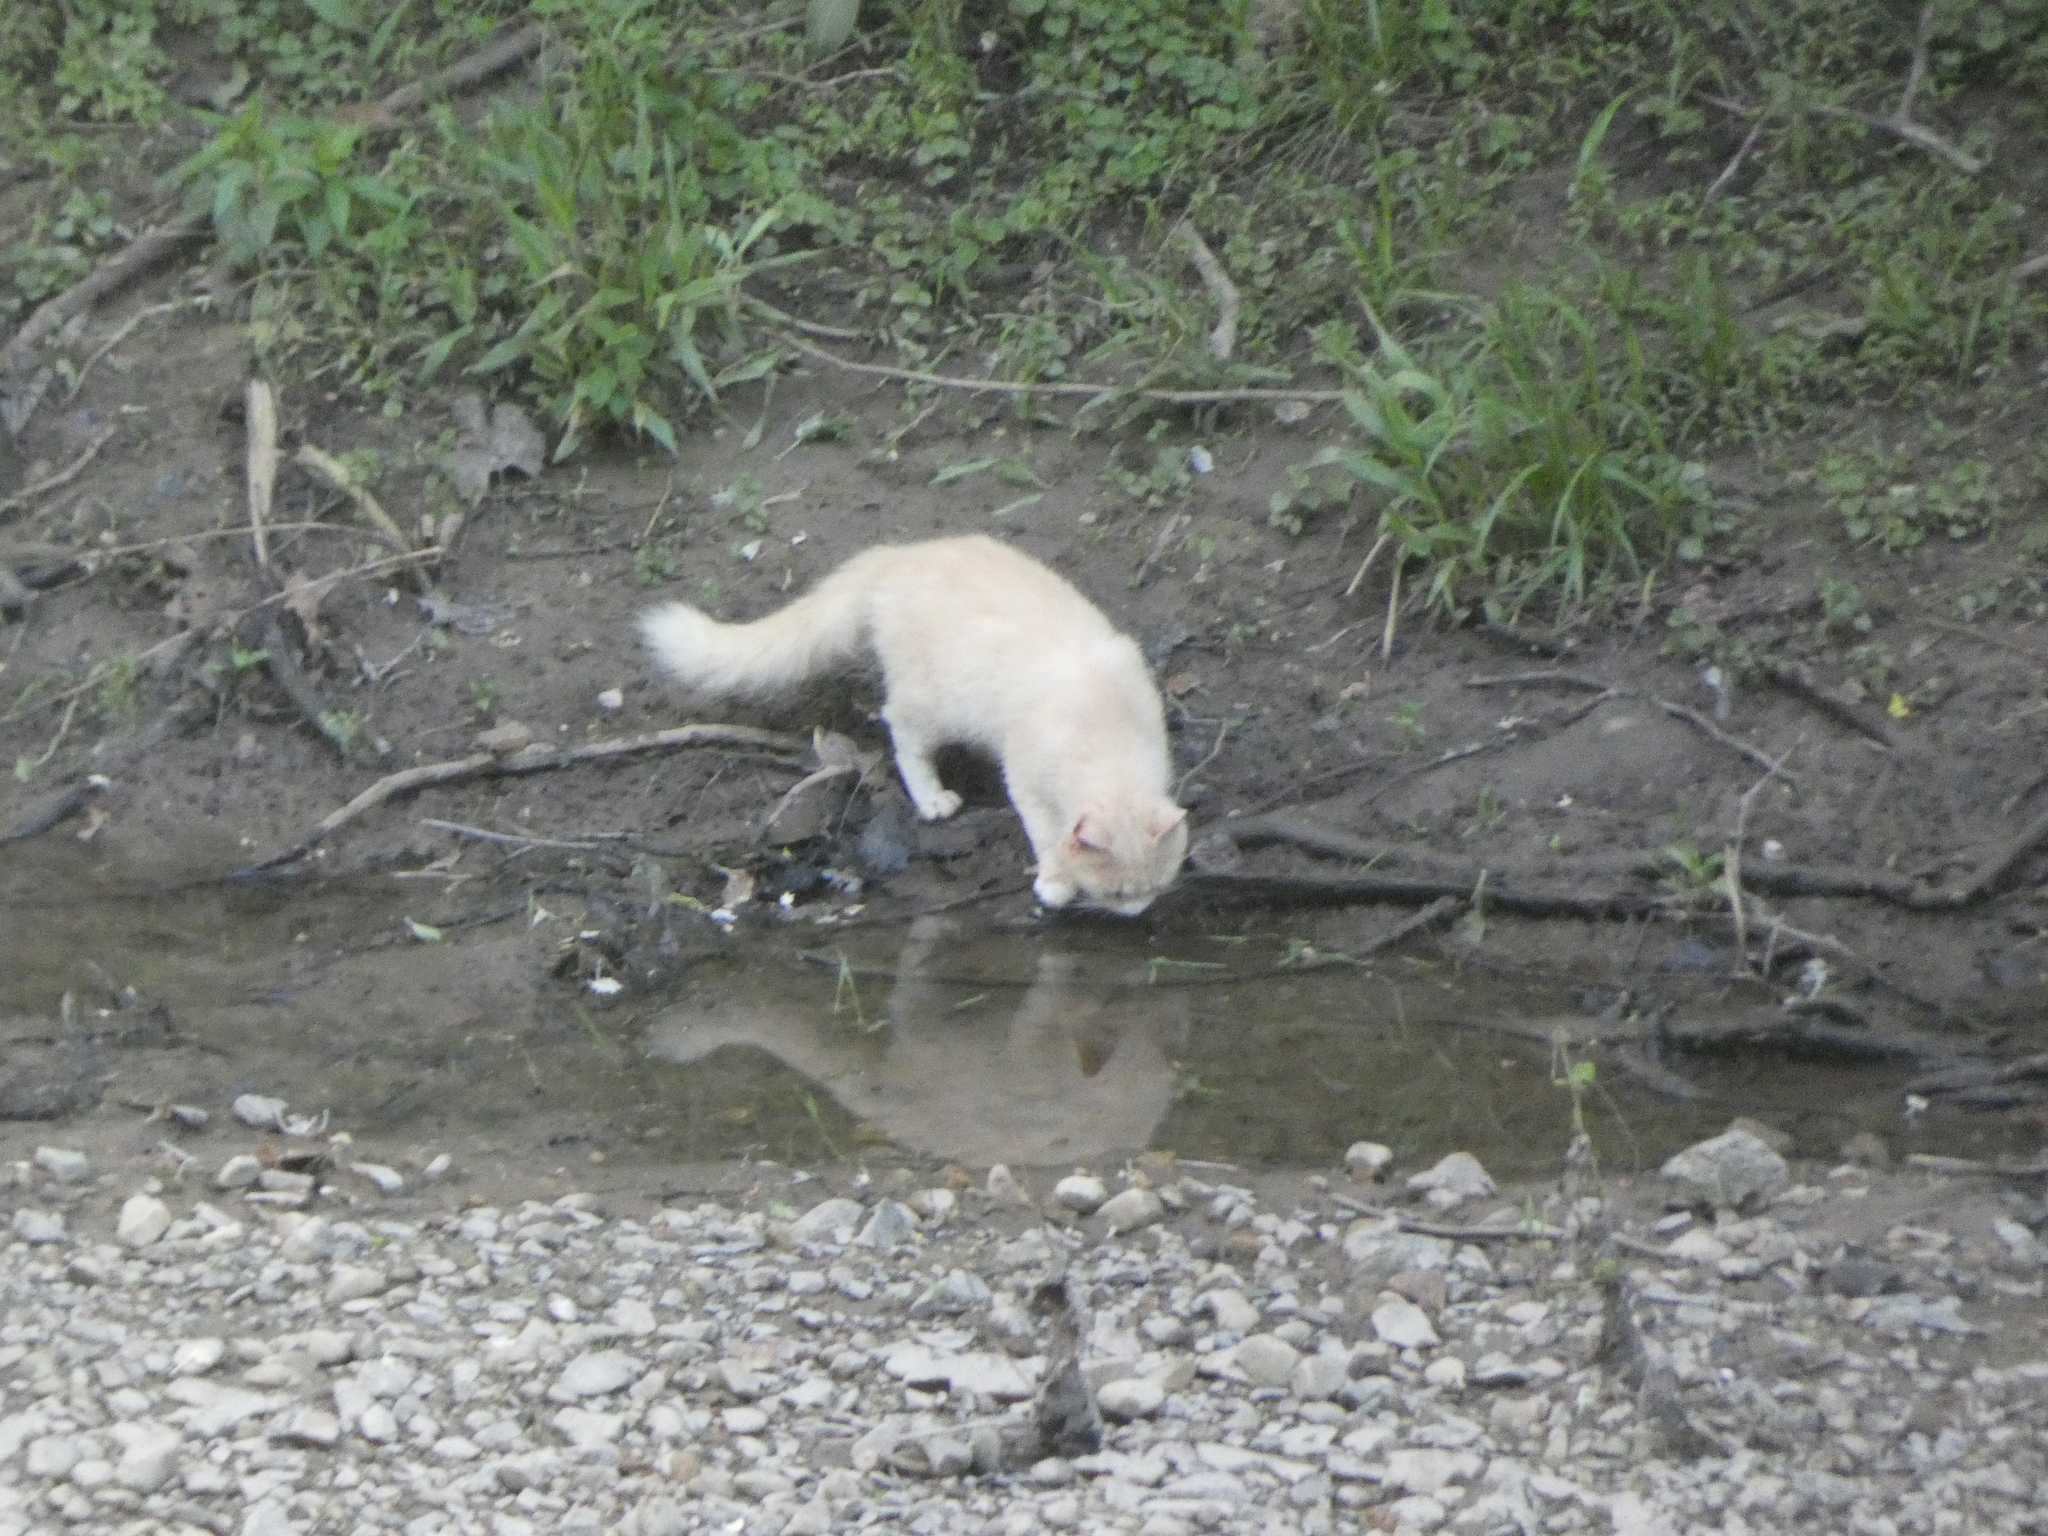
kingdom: Animalia
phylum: Chordata
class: Mammalia
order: Carnivora
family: Felidae
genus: Felis
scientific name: Felis catus
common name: Domestic cat
